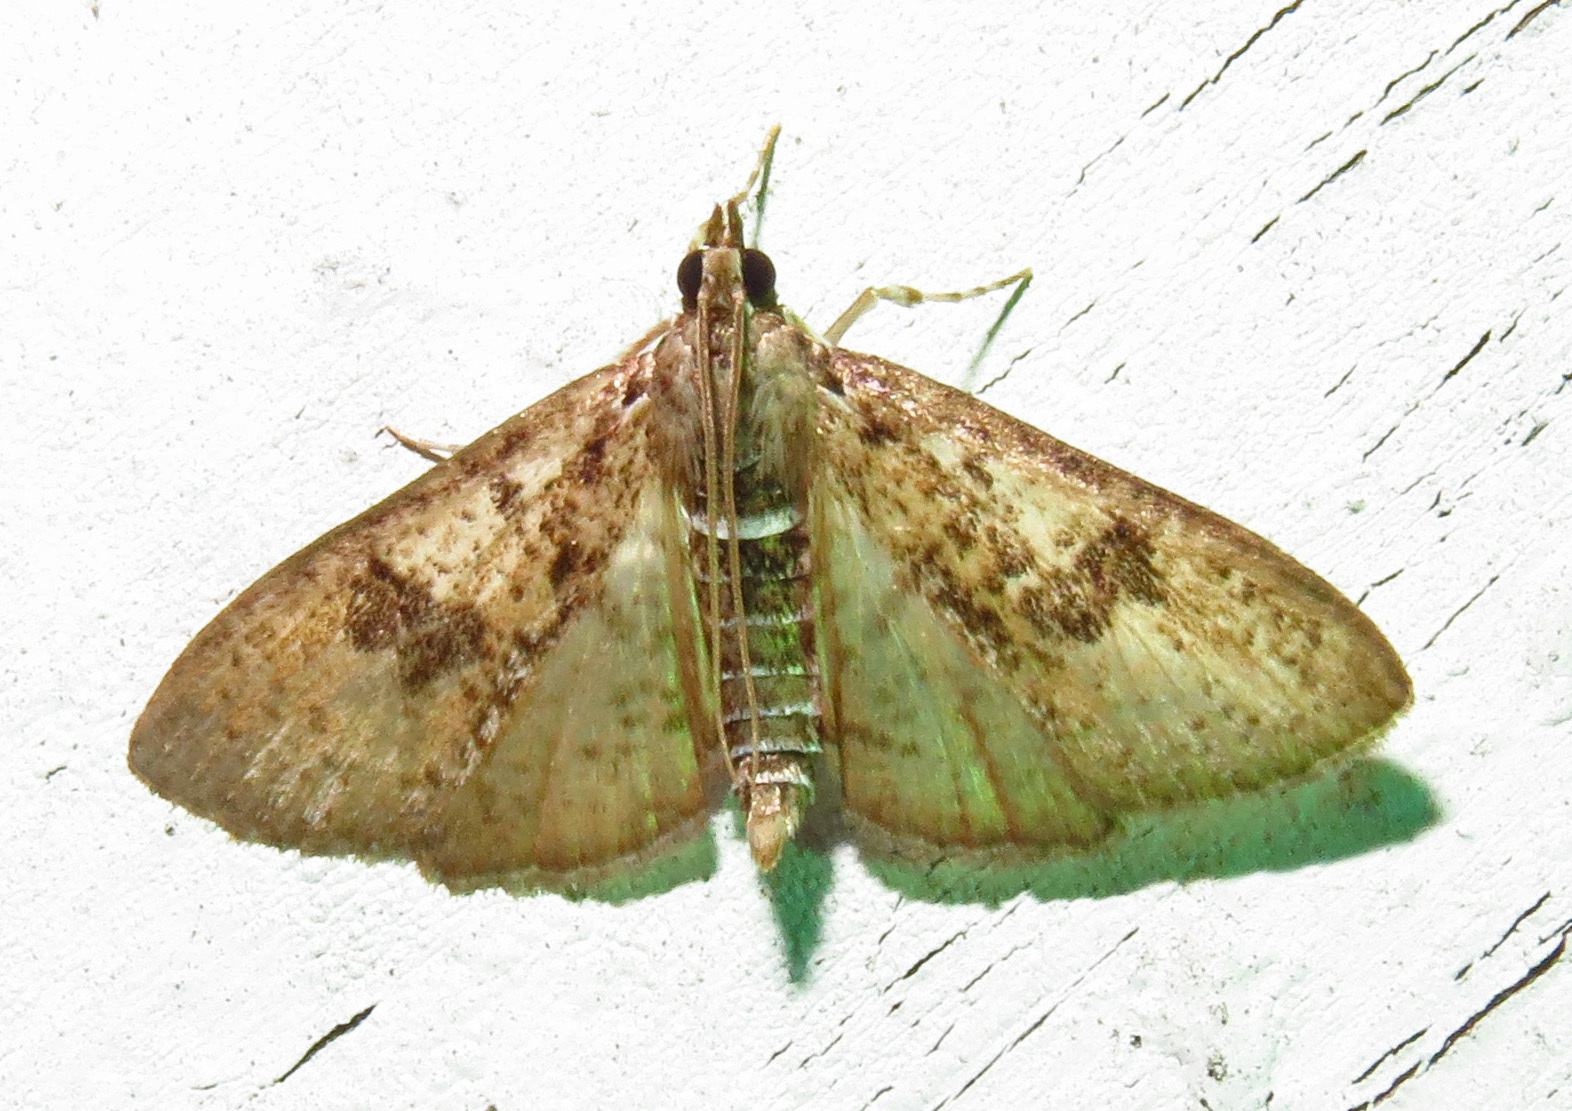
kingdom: Animalia
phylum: Arthropoda
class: Insecta
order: Lepidoptera
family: Crambidae
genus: Palpita
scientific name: Palpita magniferalis
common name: Splendid palpita moth
